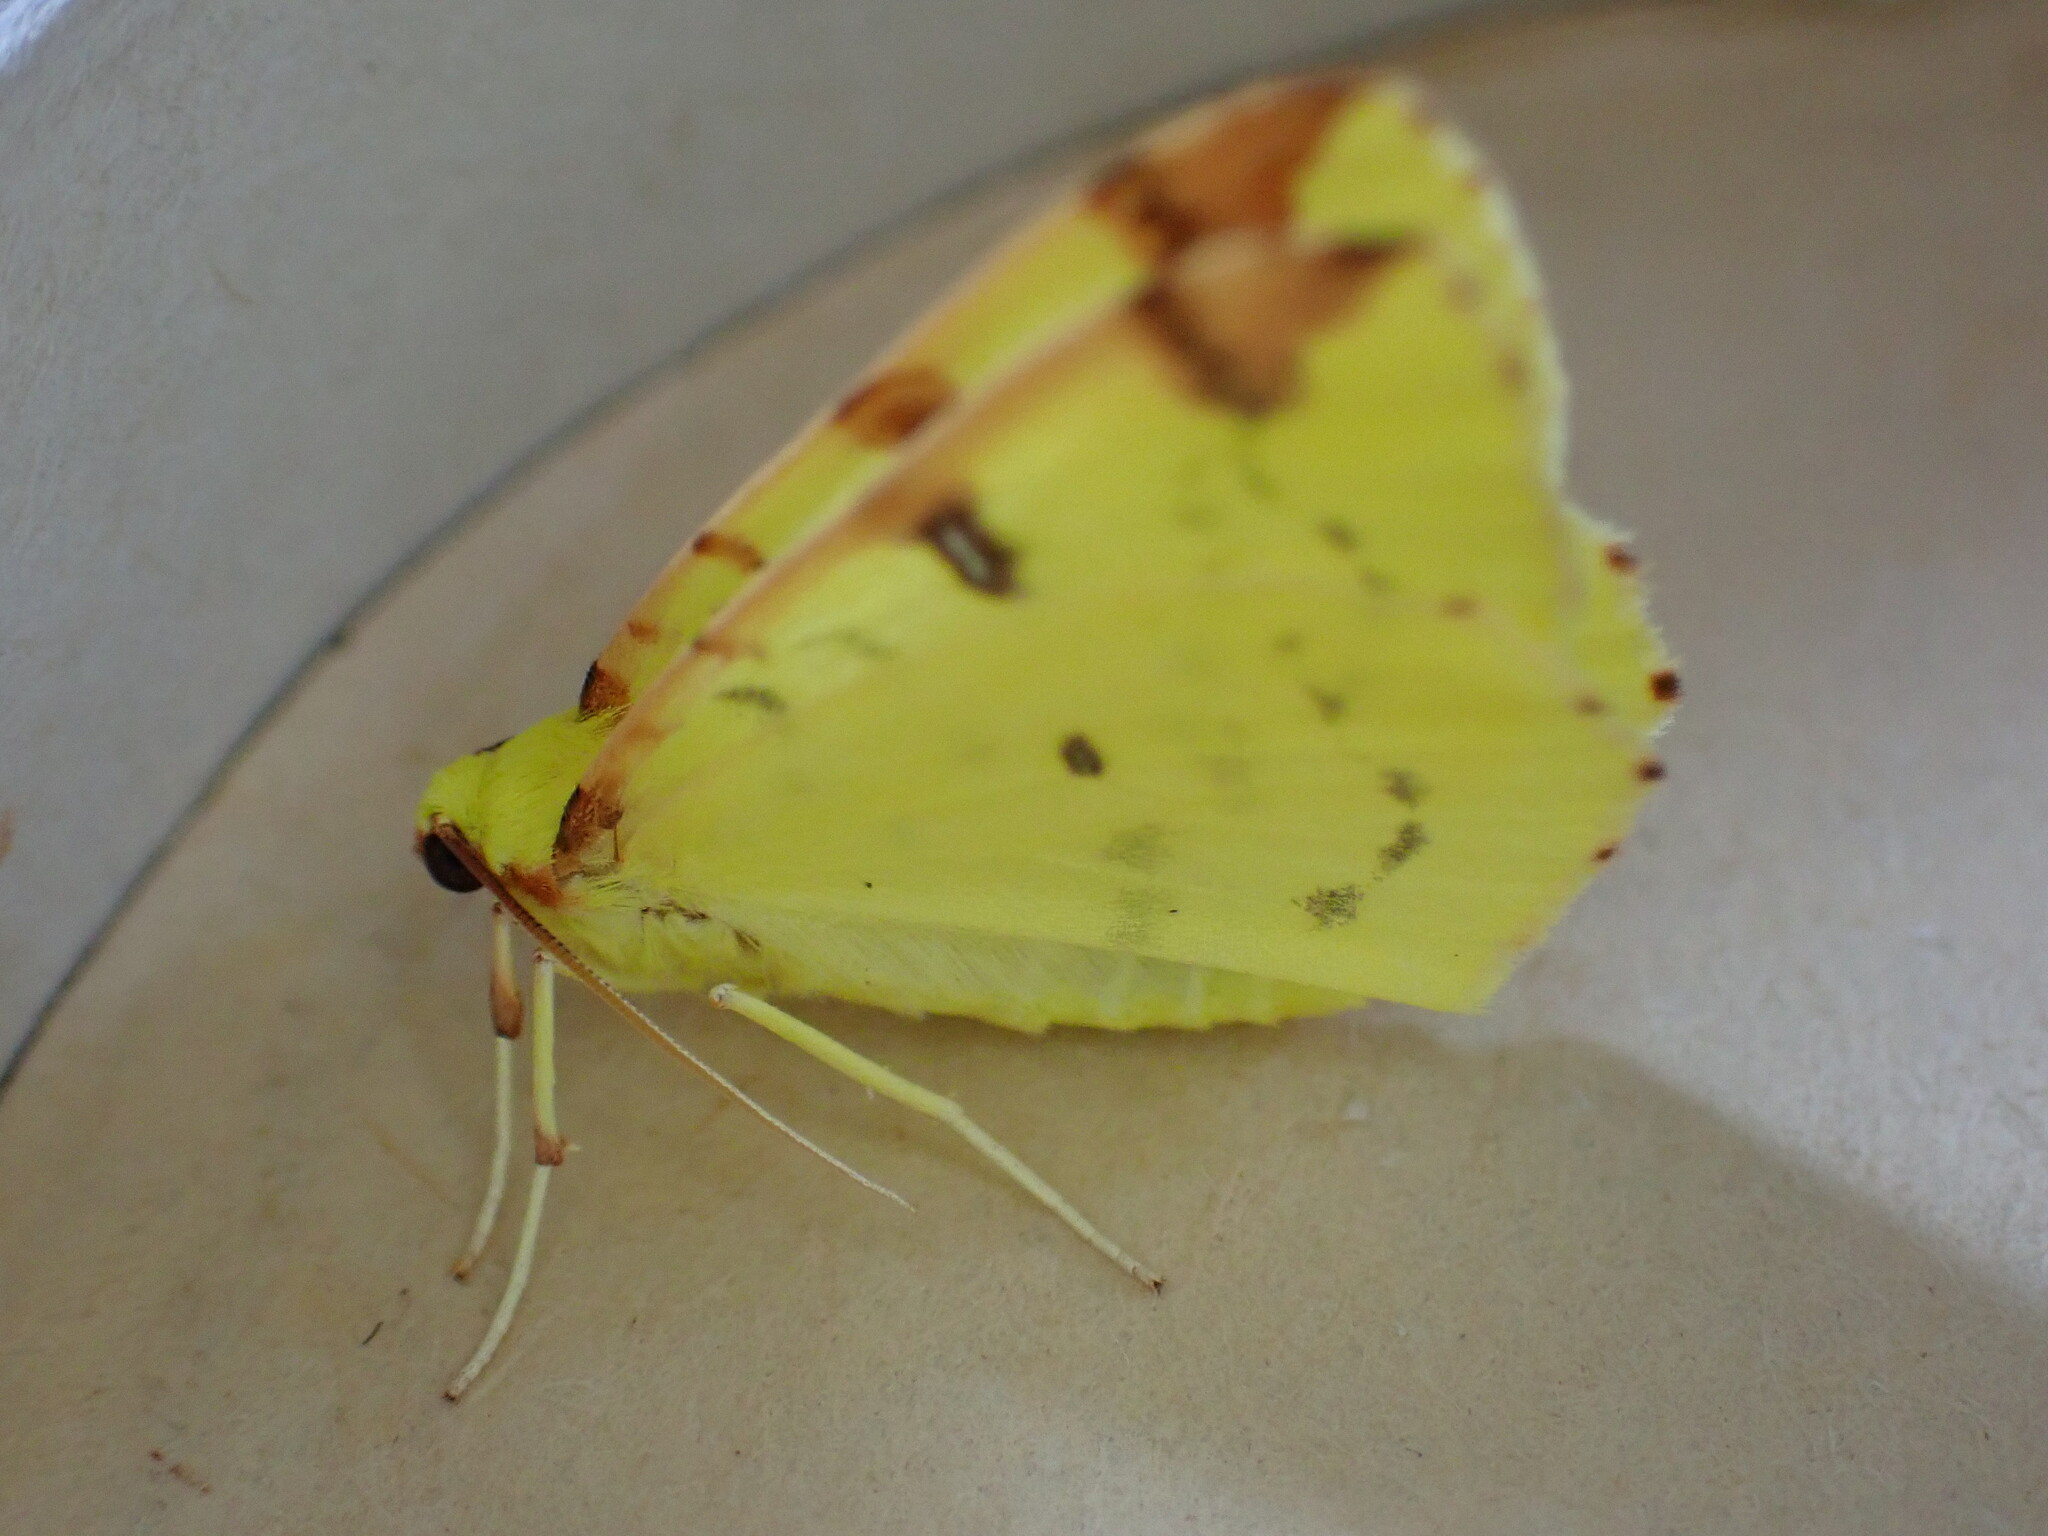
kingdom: Animalia
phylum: Arthropoda
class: Insecta
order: Lepidoptera
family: Geometridae
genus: Opisthograptis
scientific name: Opisthograptis luteolata
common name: Brimstone moth
